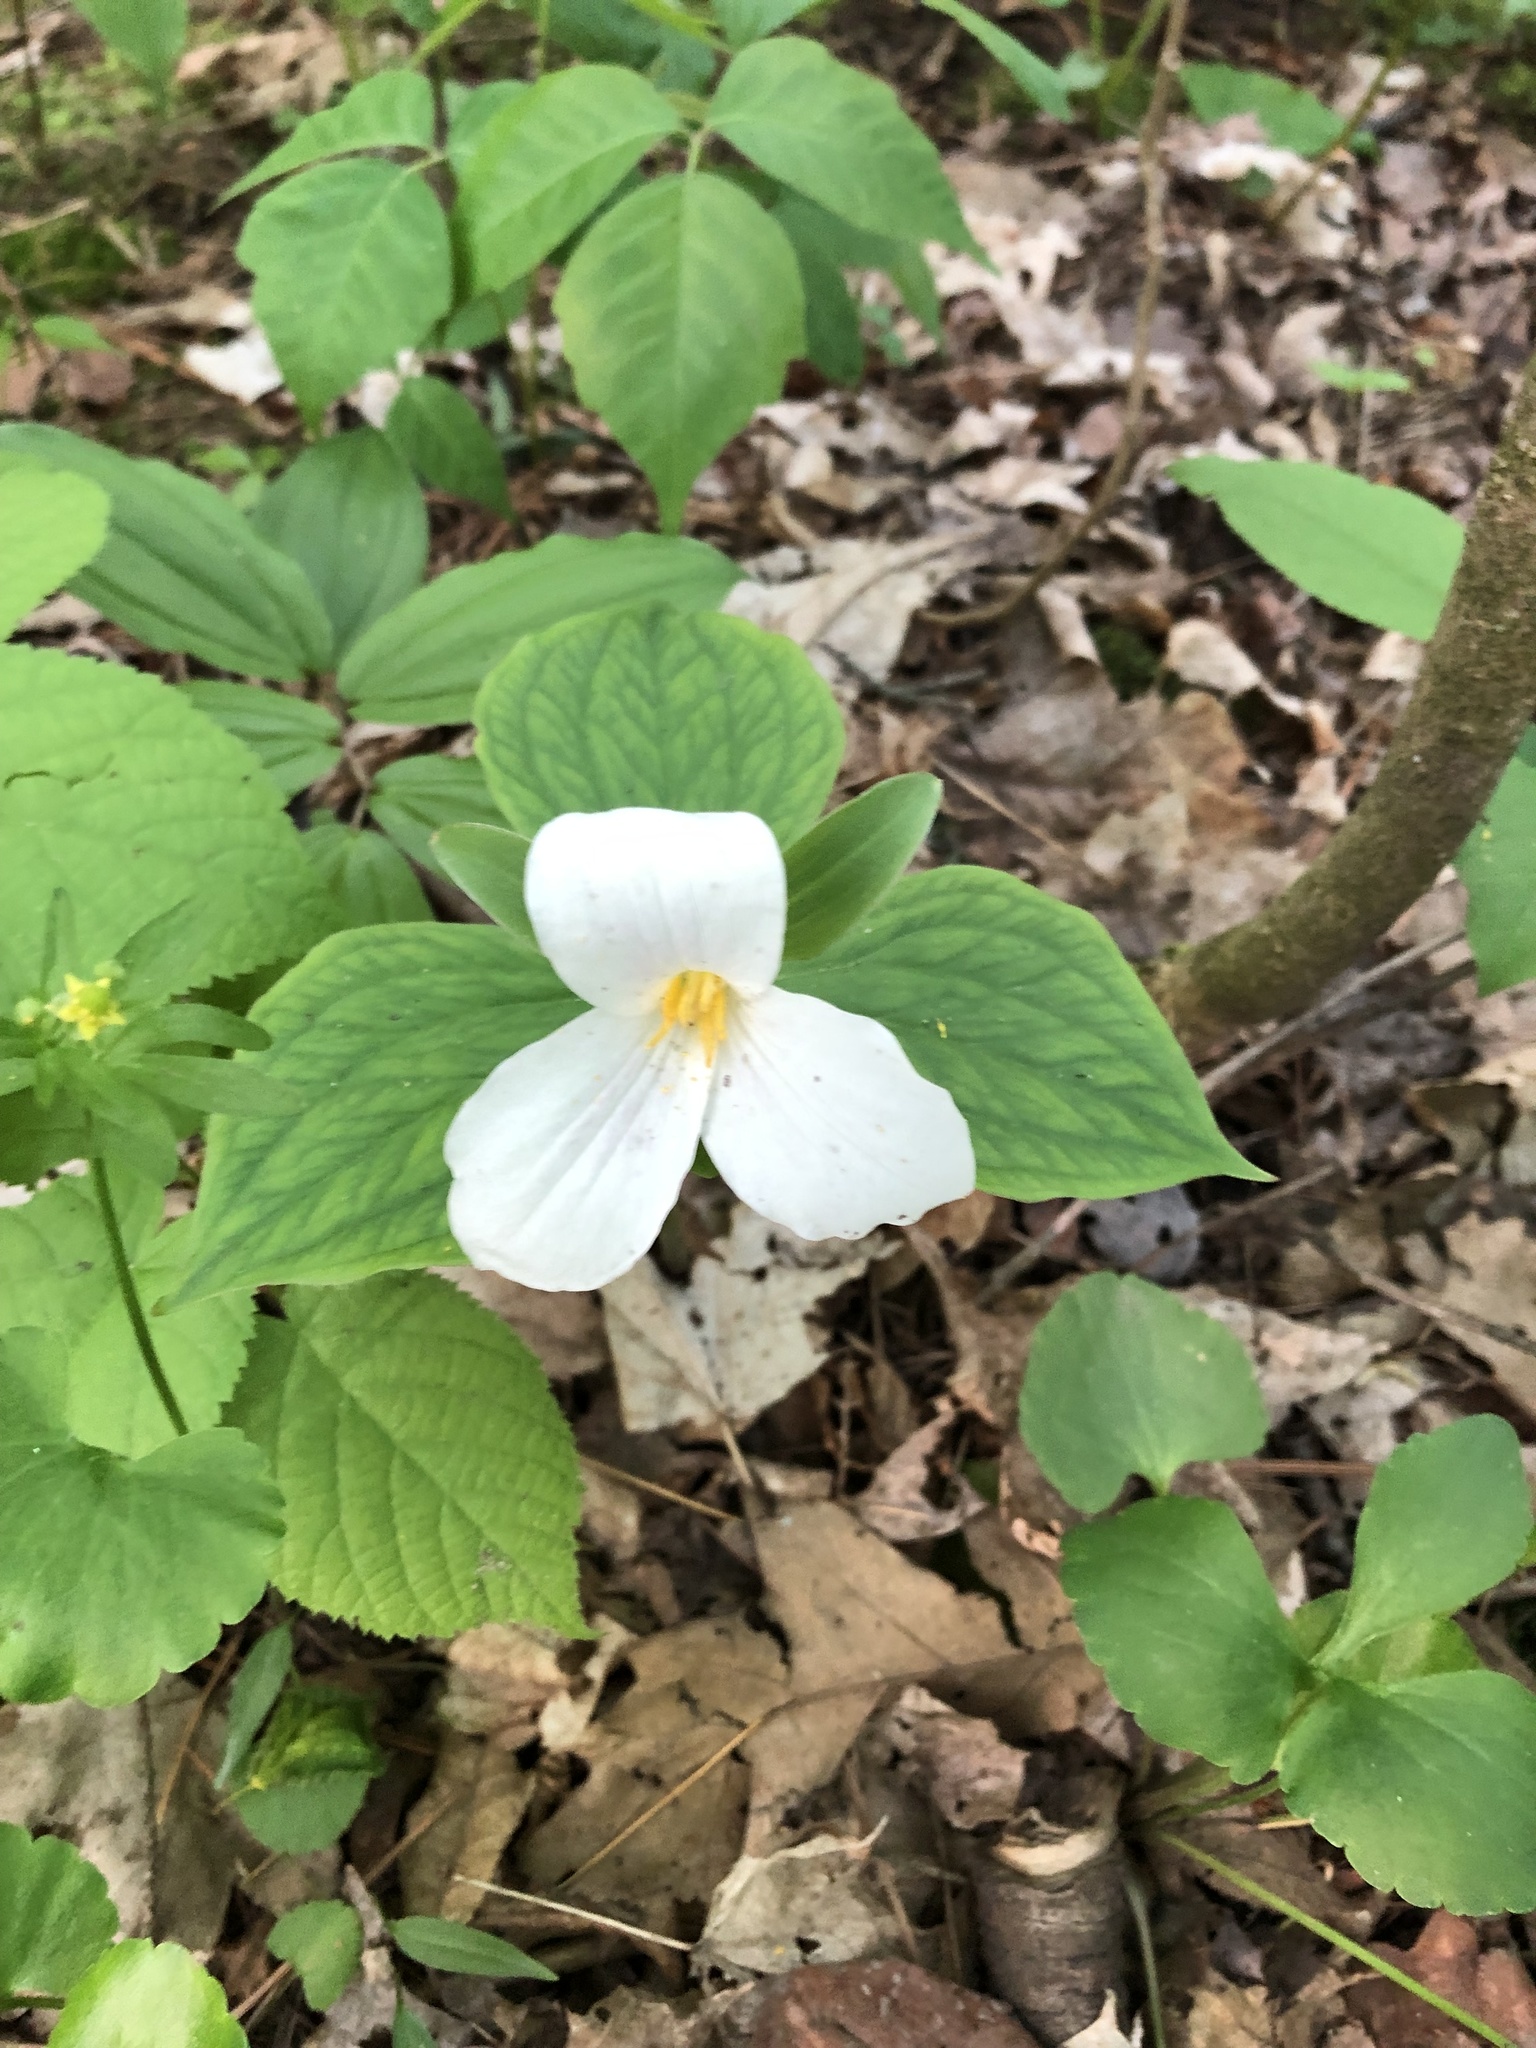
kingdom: Plantae
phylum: Tracheophyta
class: Liliopsida
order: Liliales
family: Melanthiaceae
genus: Trillium
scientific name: Trillium grandiflorum
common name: Great white trillium
